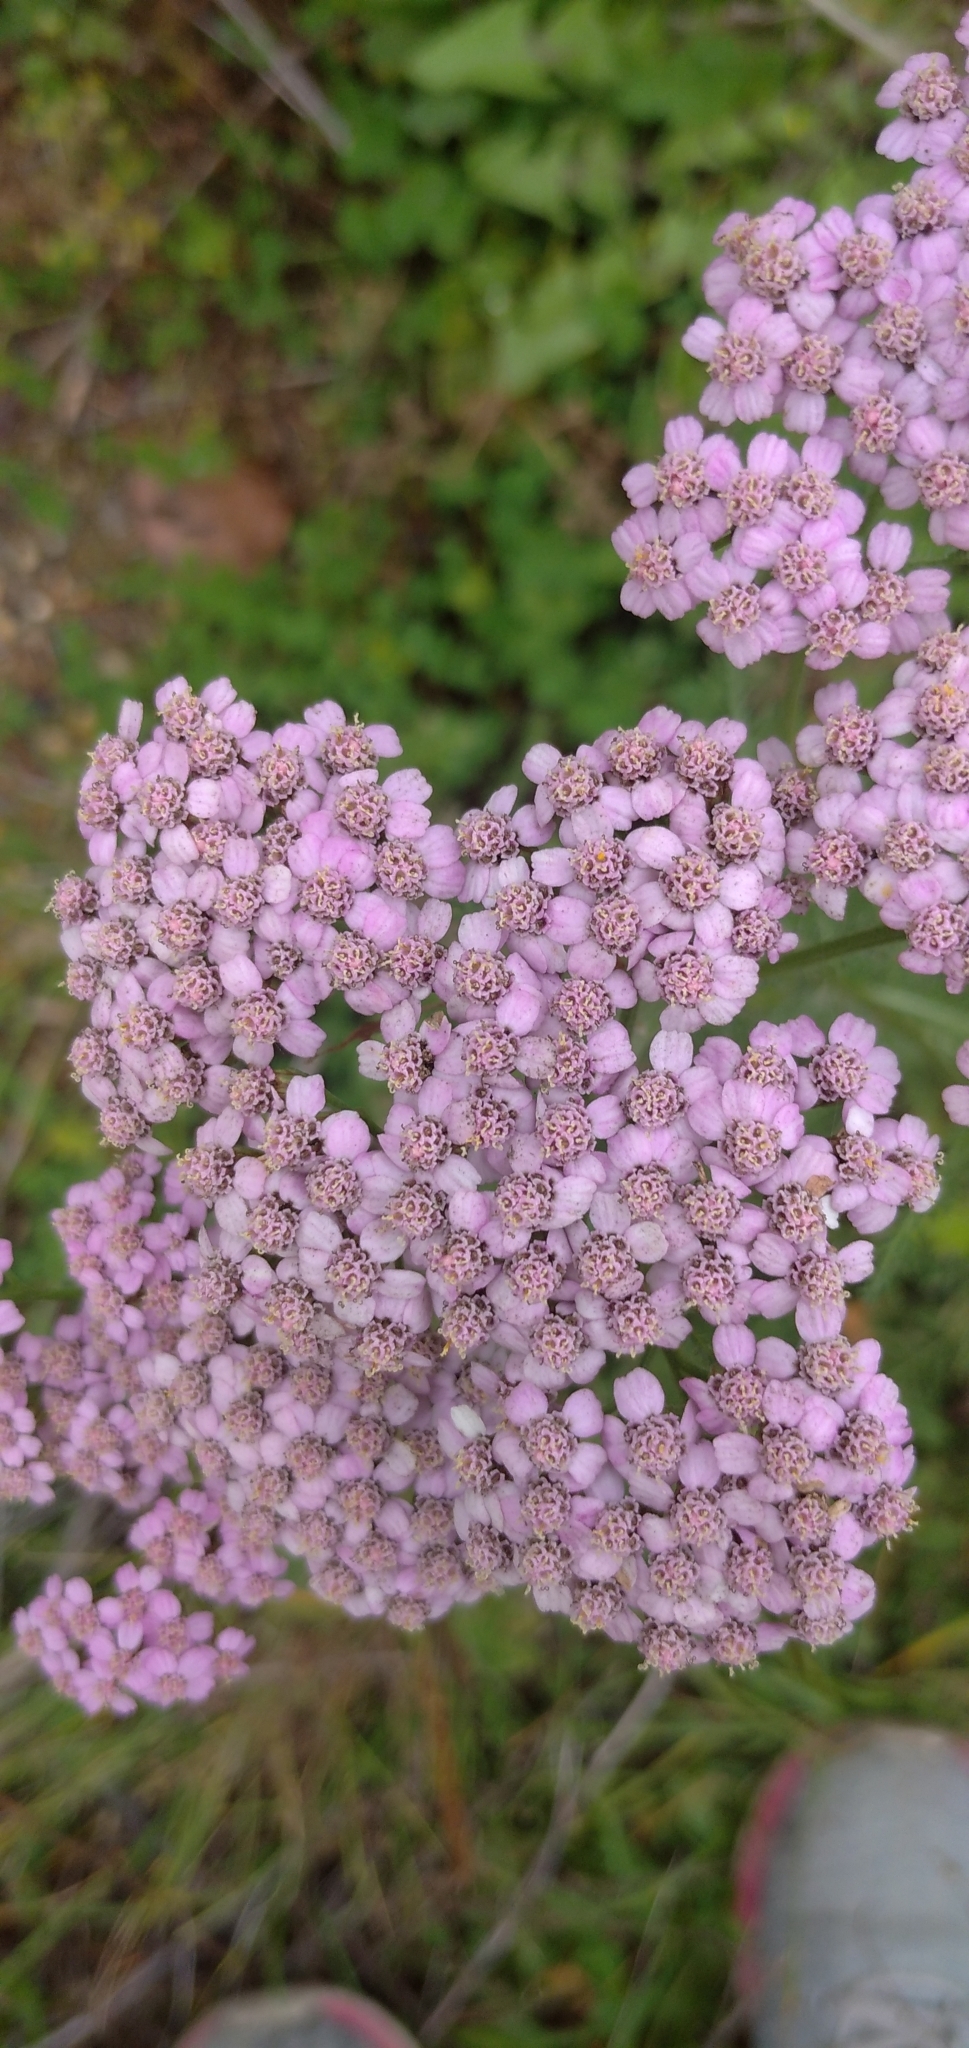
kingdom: Plantae
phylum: Tracheophyta
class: Magnoliopsida
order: Asterales
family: Asteraceae
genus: Achillea
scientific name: Achillea asiatica
